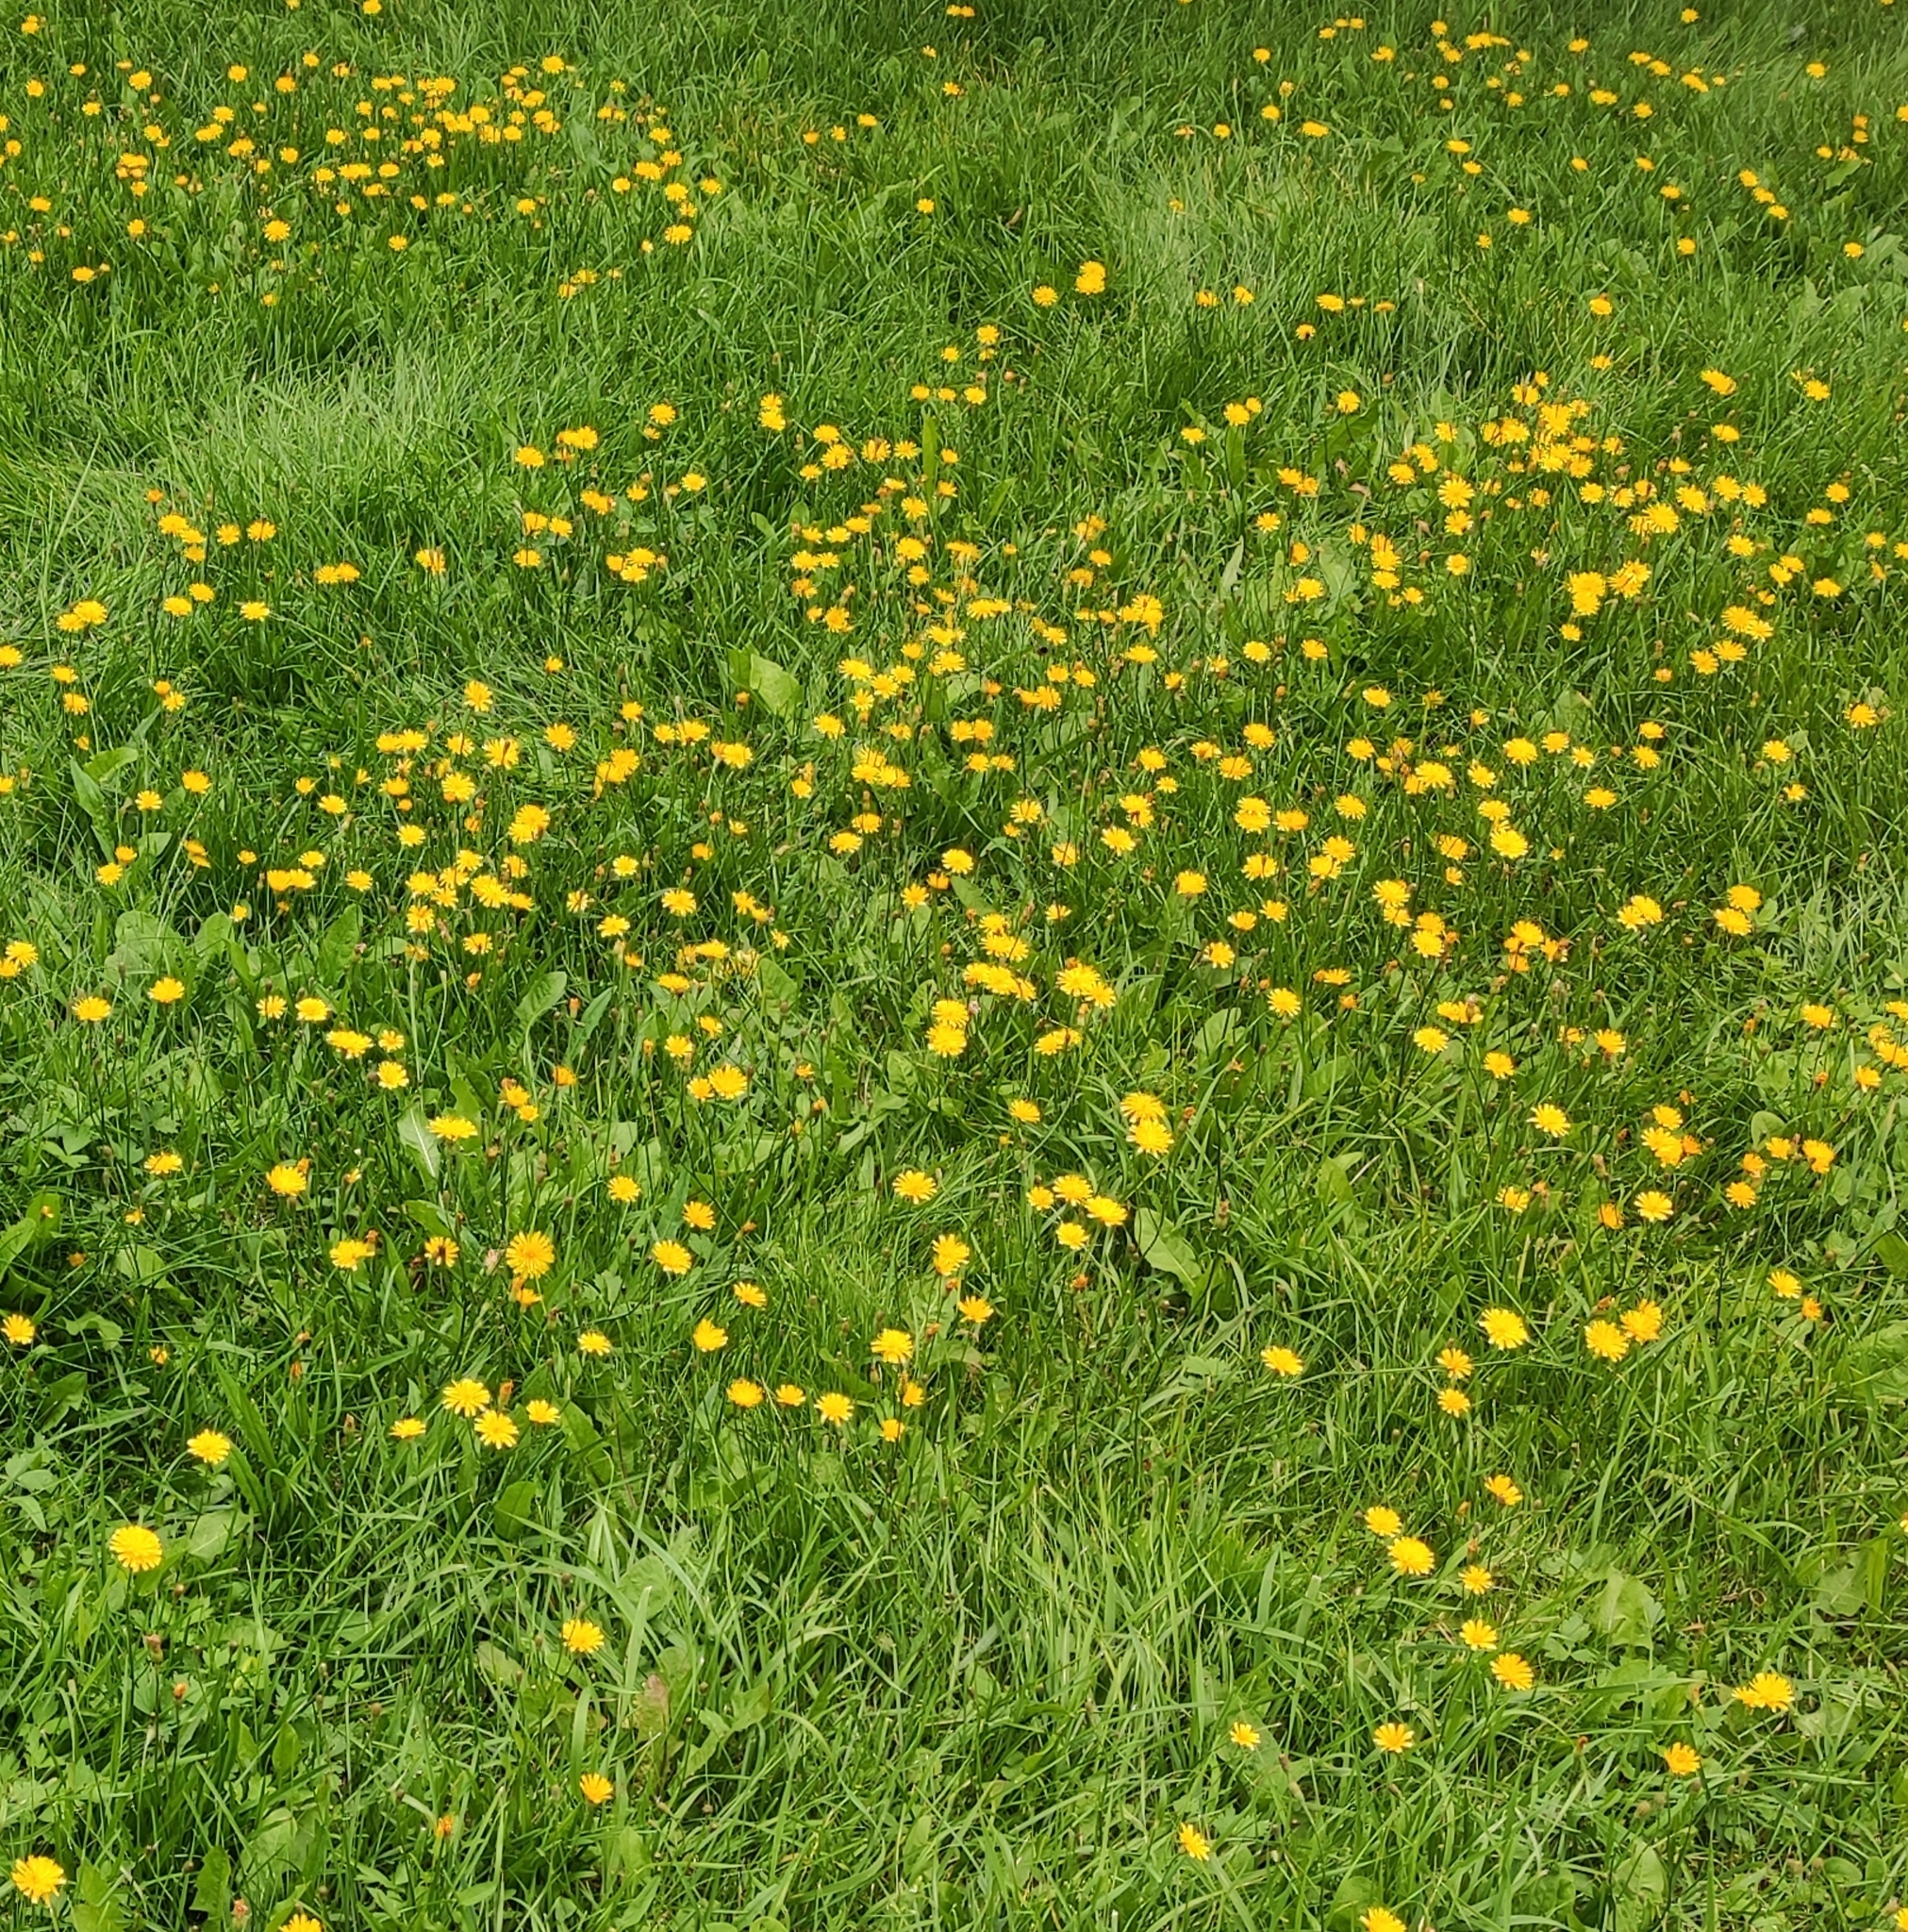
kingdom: Plantae
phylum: Tracheophyta
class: Magnoliopsida
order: Asterales
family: Asteraceae
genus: Scorzoneroides
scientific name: Scorzoneroides autumnalis
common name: Autumn hawkbit
